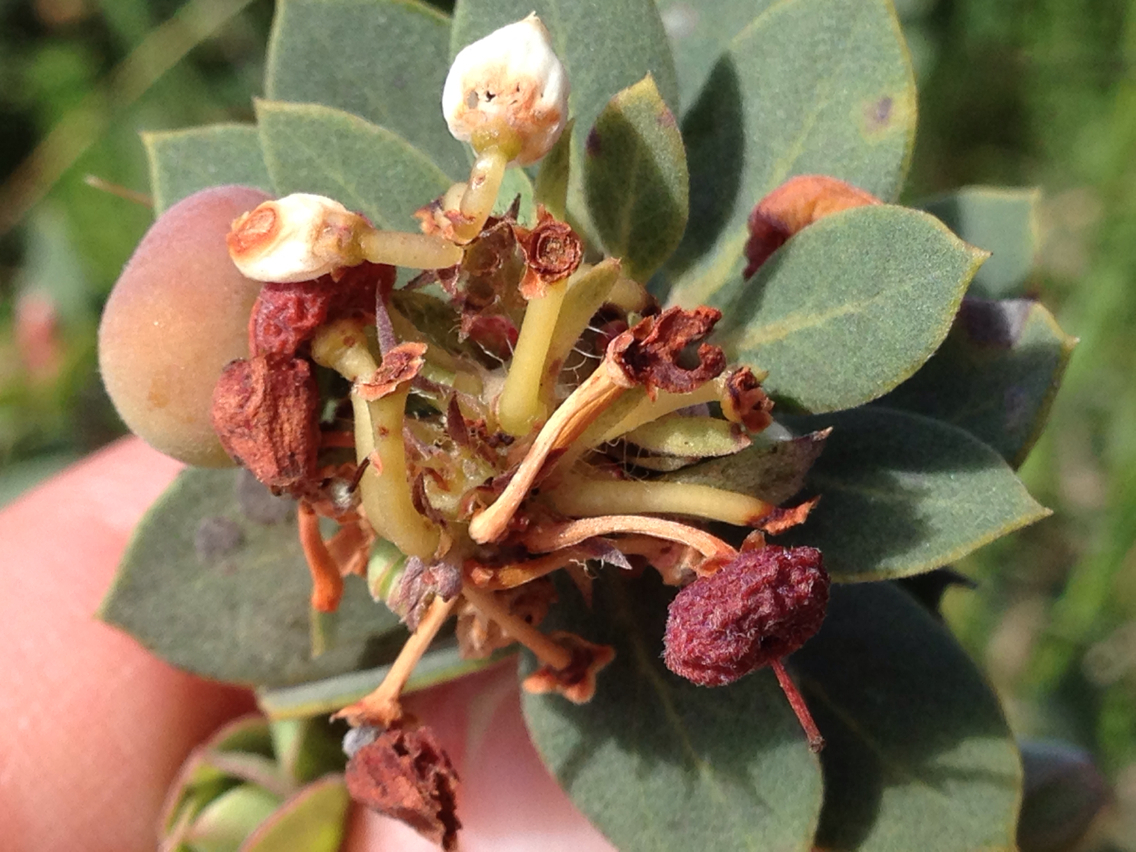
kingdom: Plantae
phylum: Tracheophyta
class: Magnoliopsida
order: Ericales
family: Ericaceae
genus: Arctostaphylos
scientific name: Arctostaphylos morroensis
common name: Morro manzanita
